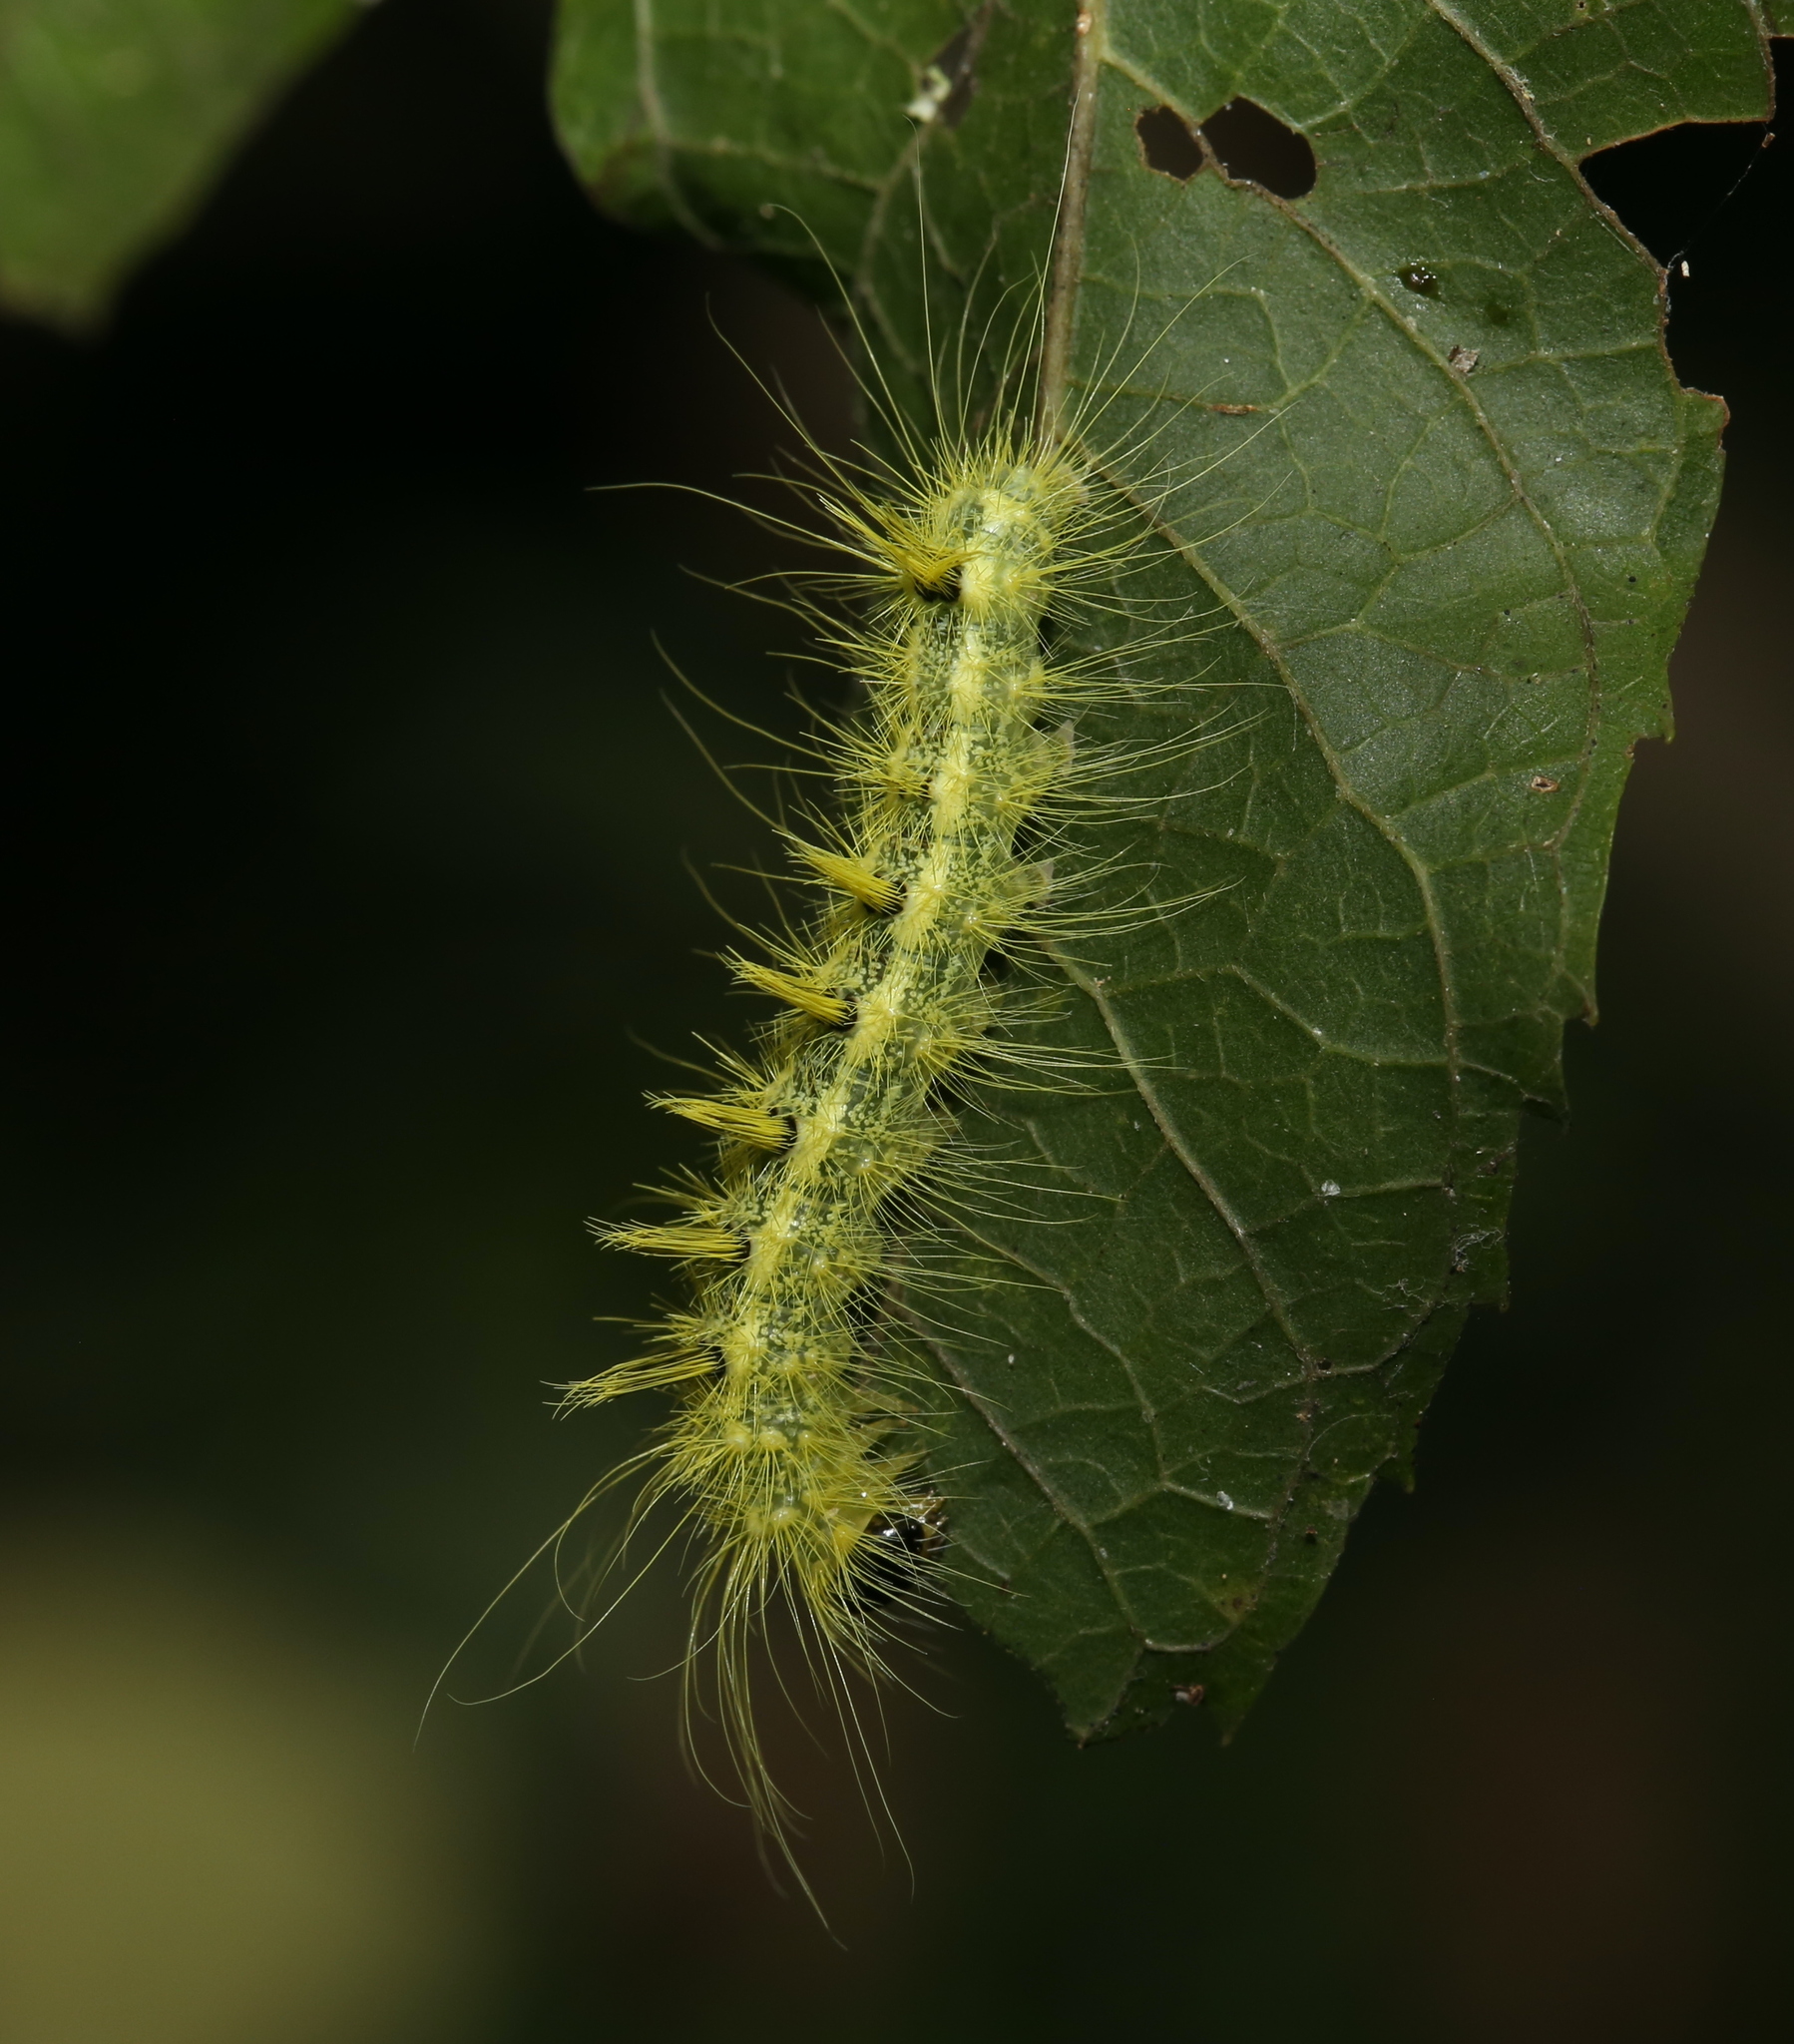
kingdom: Animalia
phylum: Arthropoda
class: Insecta
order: Lepidoptera
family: Noctuidae
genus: Acronicta
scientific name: Acronicta rubricoma
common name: Hackberry dagger
